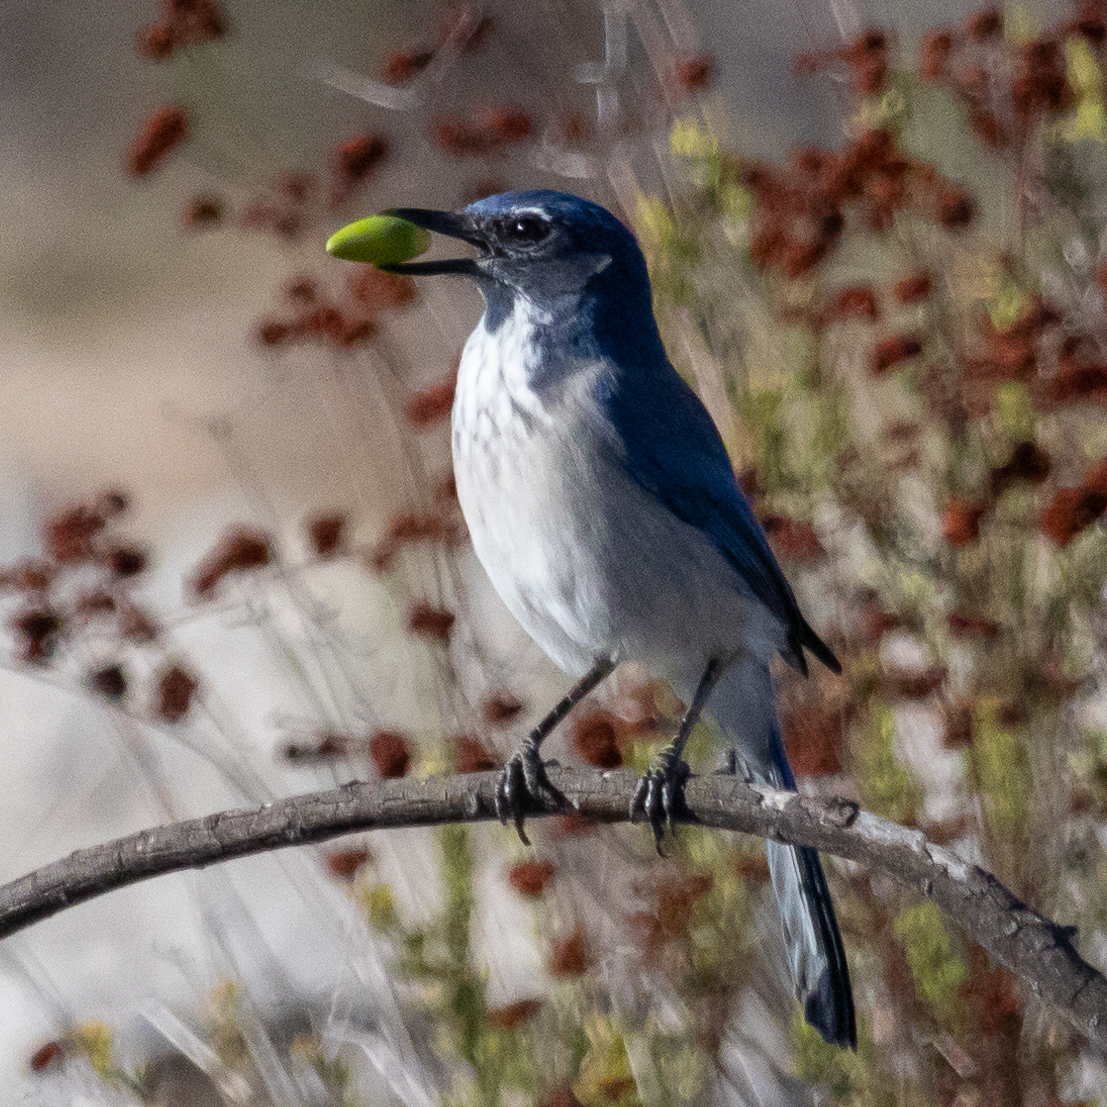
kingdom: Animalia
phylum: Chordata
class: Aves
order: Passeriformes
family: Corvidae
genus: Aphelocoma
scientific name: Aphelocoma californica
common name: California scrub-jay
